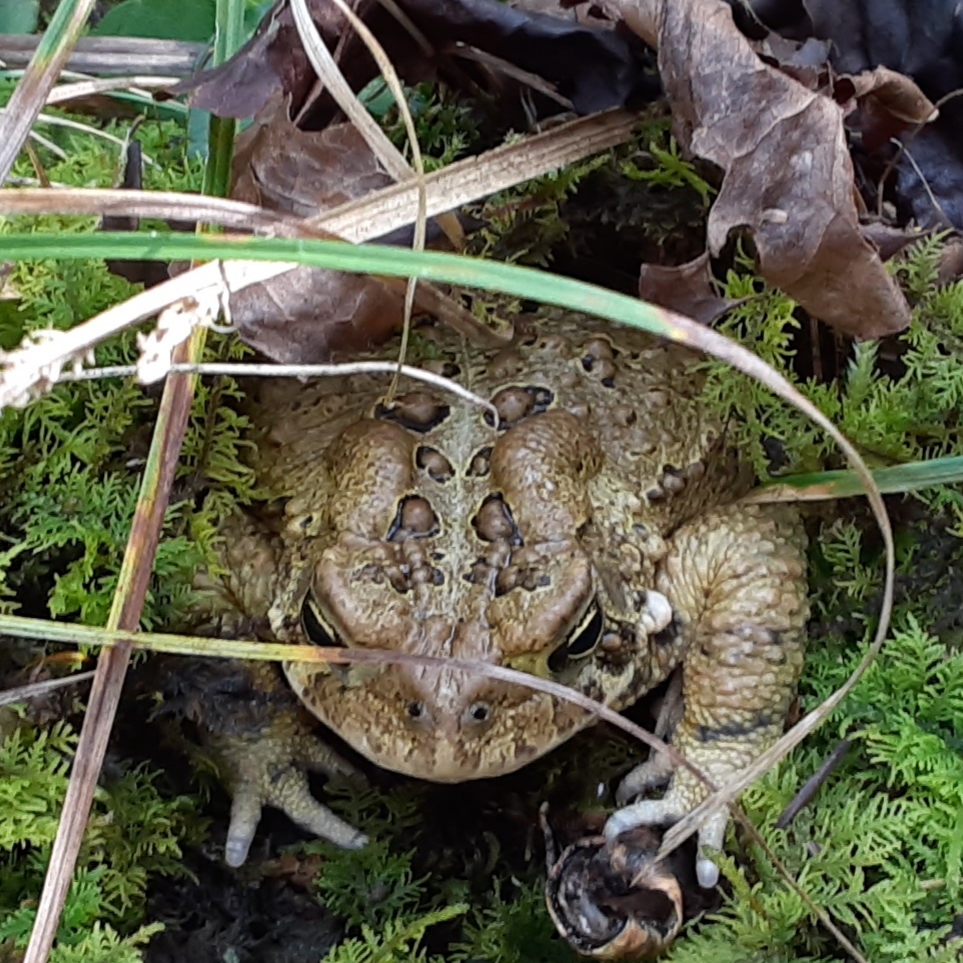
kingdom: Animalia
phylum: Chordata
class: Amphibia
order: Anura
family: Bufonidae
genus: Anaxyrus
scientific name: Anaxyrus americanus
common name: American toad
